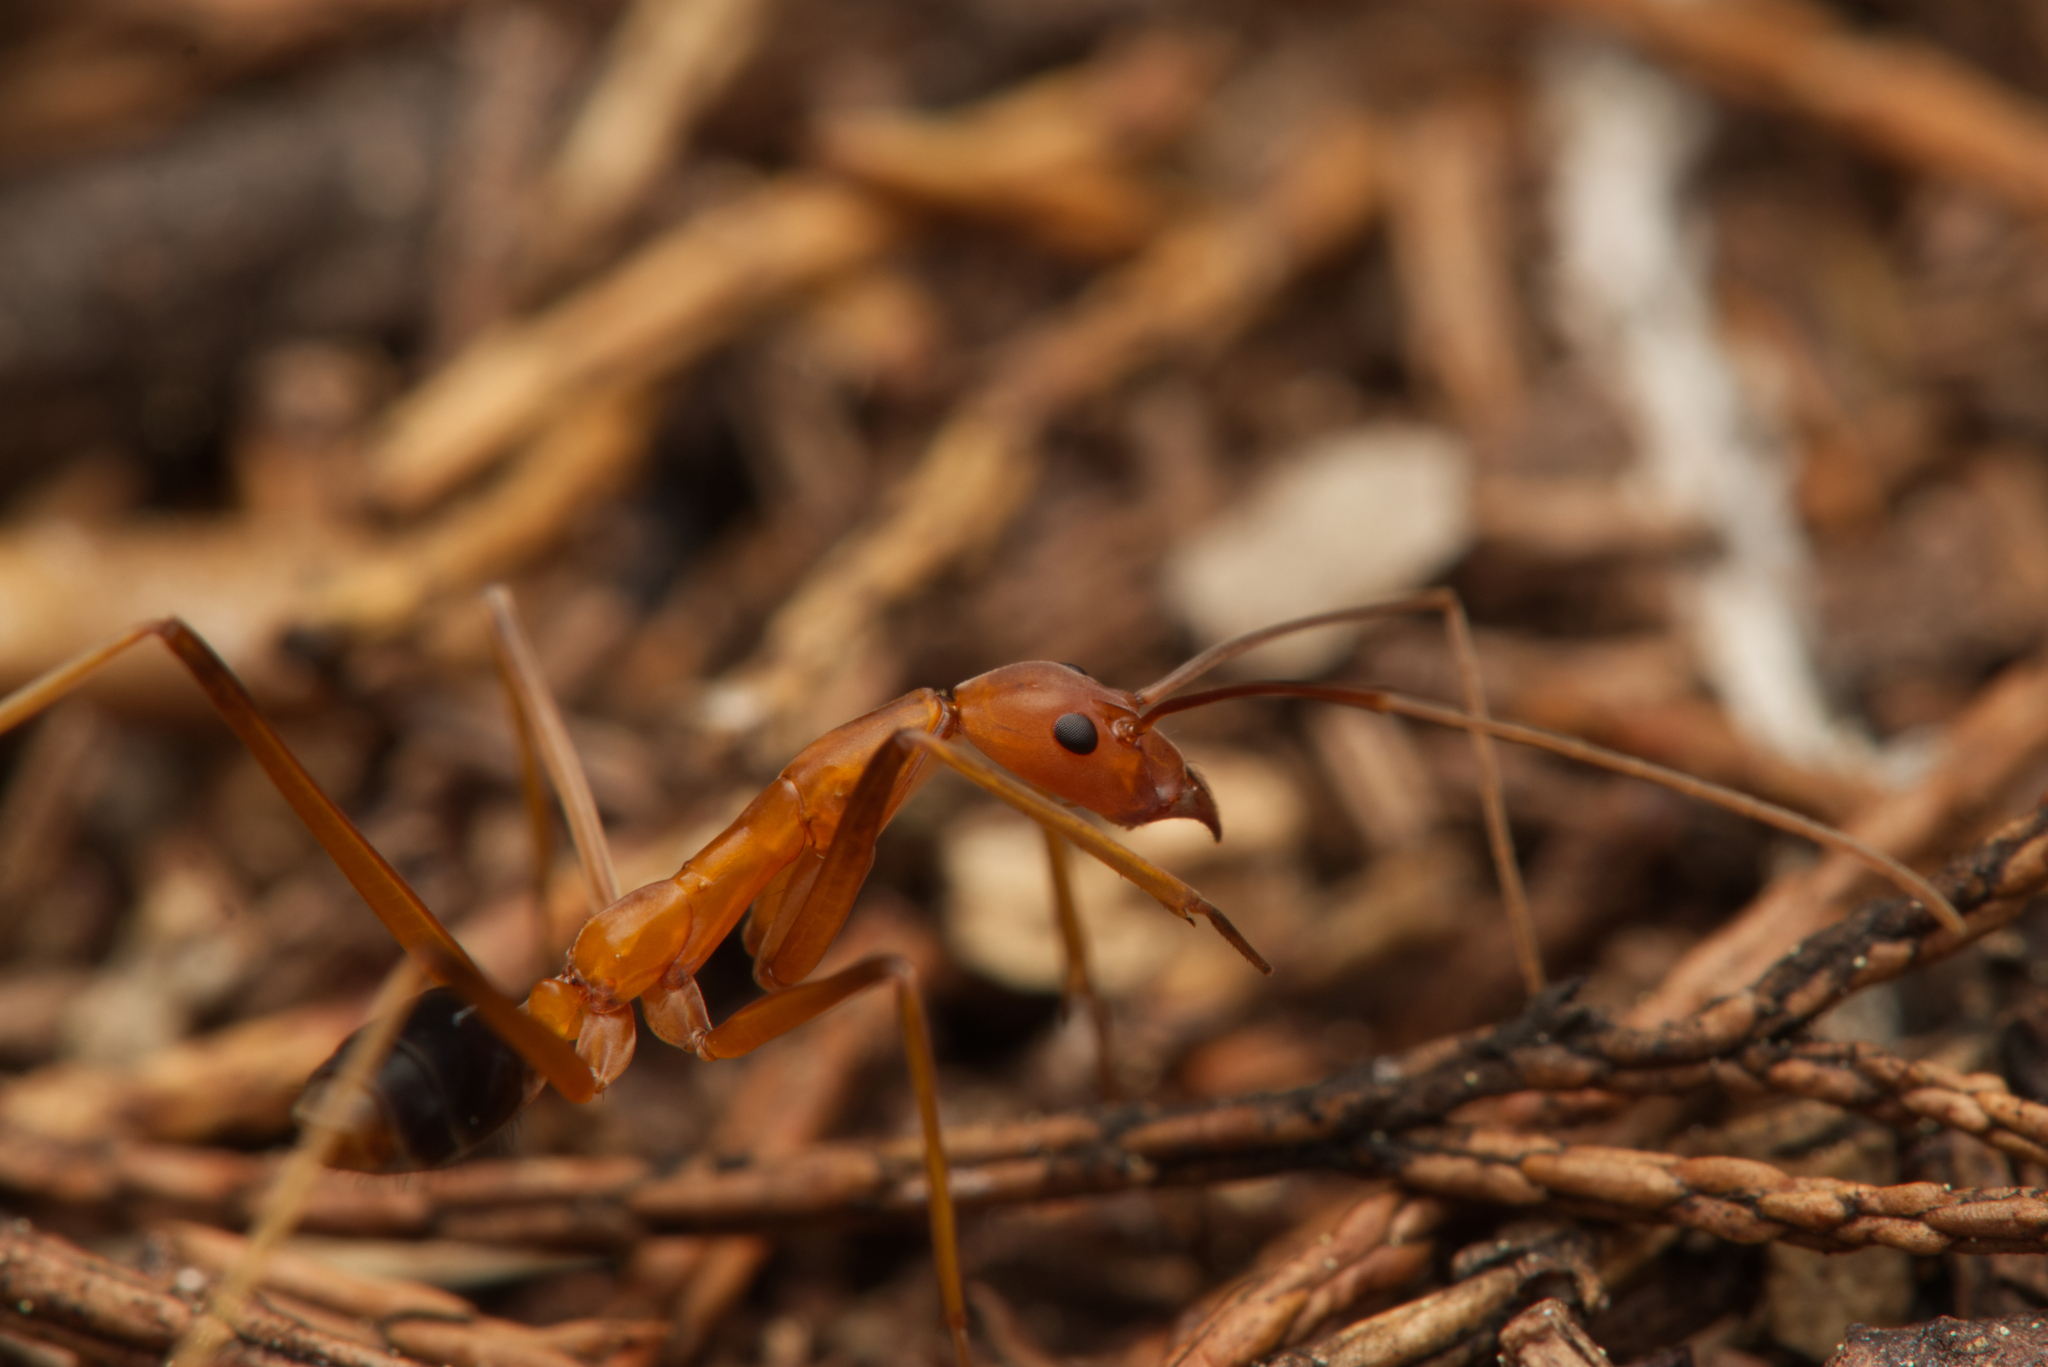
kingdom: Animalia
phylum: Arthropoda
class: Insecta
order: Hymenoptera
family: Formicidae
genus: Leptomyrmex
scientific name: Leptomyrmex rufipes
